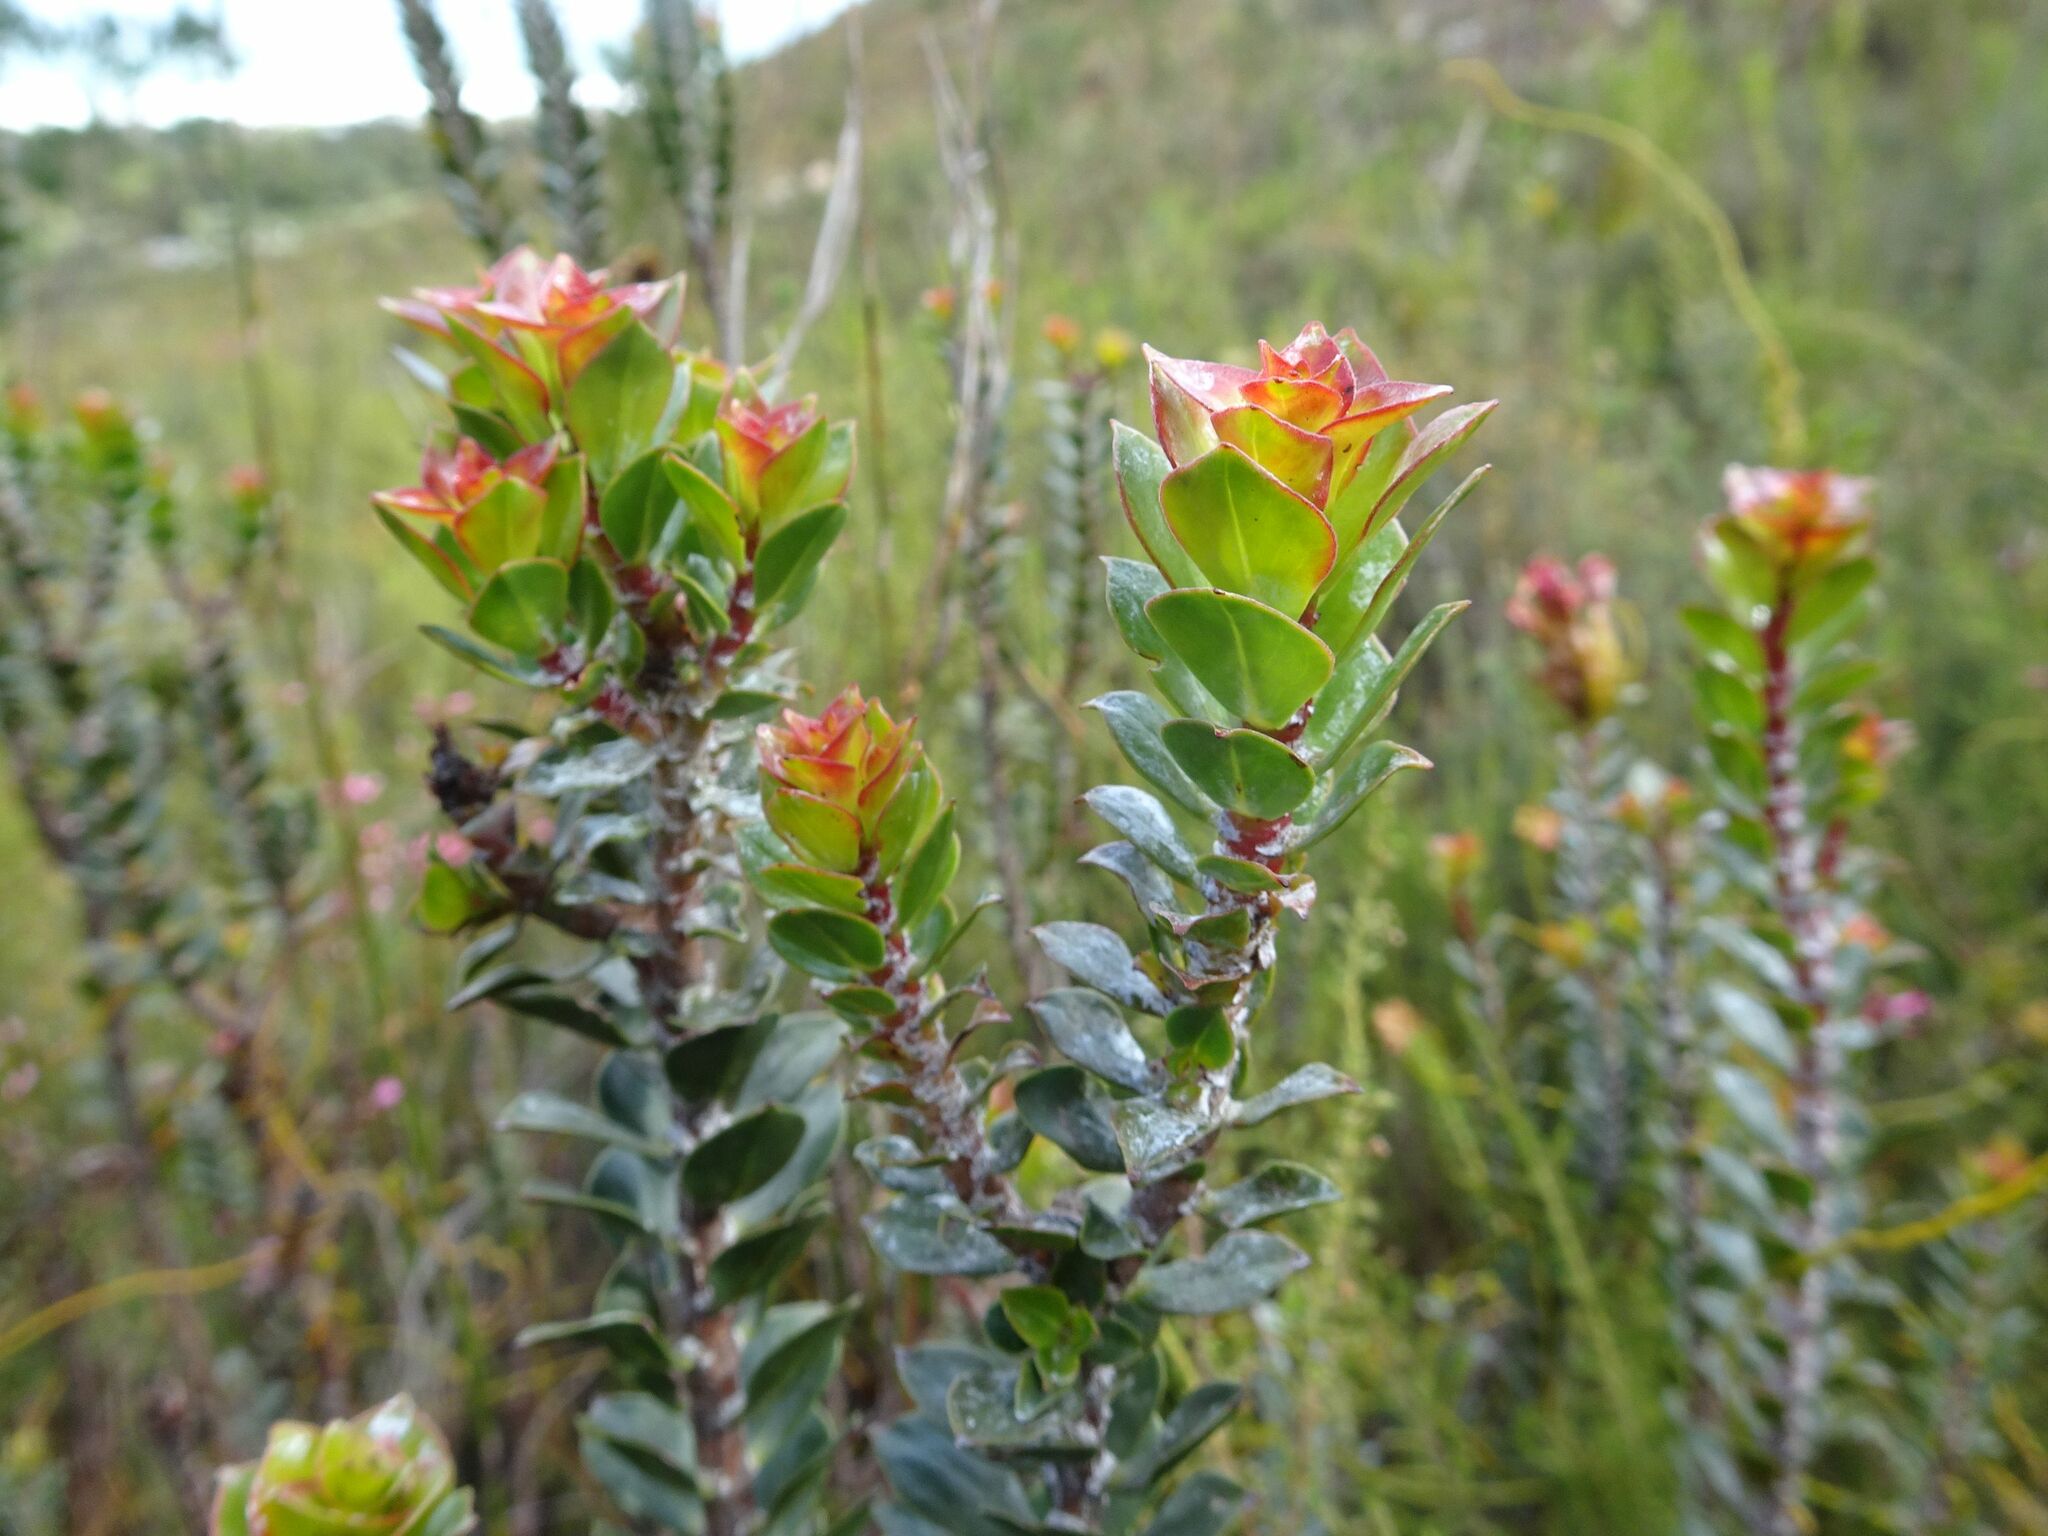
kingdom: Plantae
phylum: Tracheophyta
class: Magnoliopsida
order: Myrtales
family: Penaeaceae
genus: Saltera
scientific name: Saltera sarcocolla
